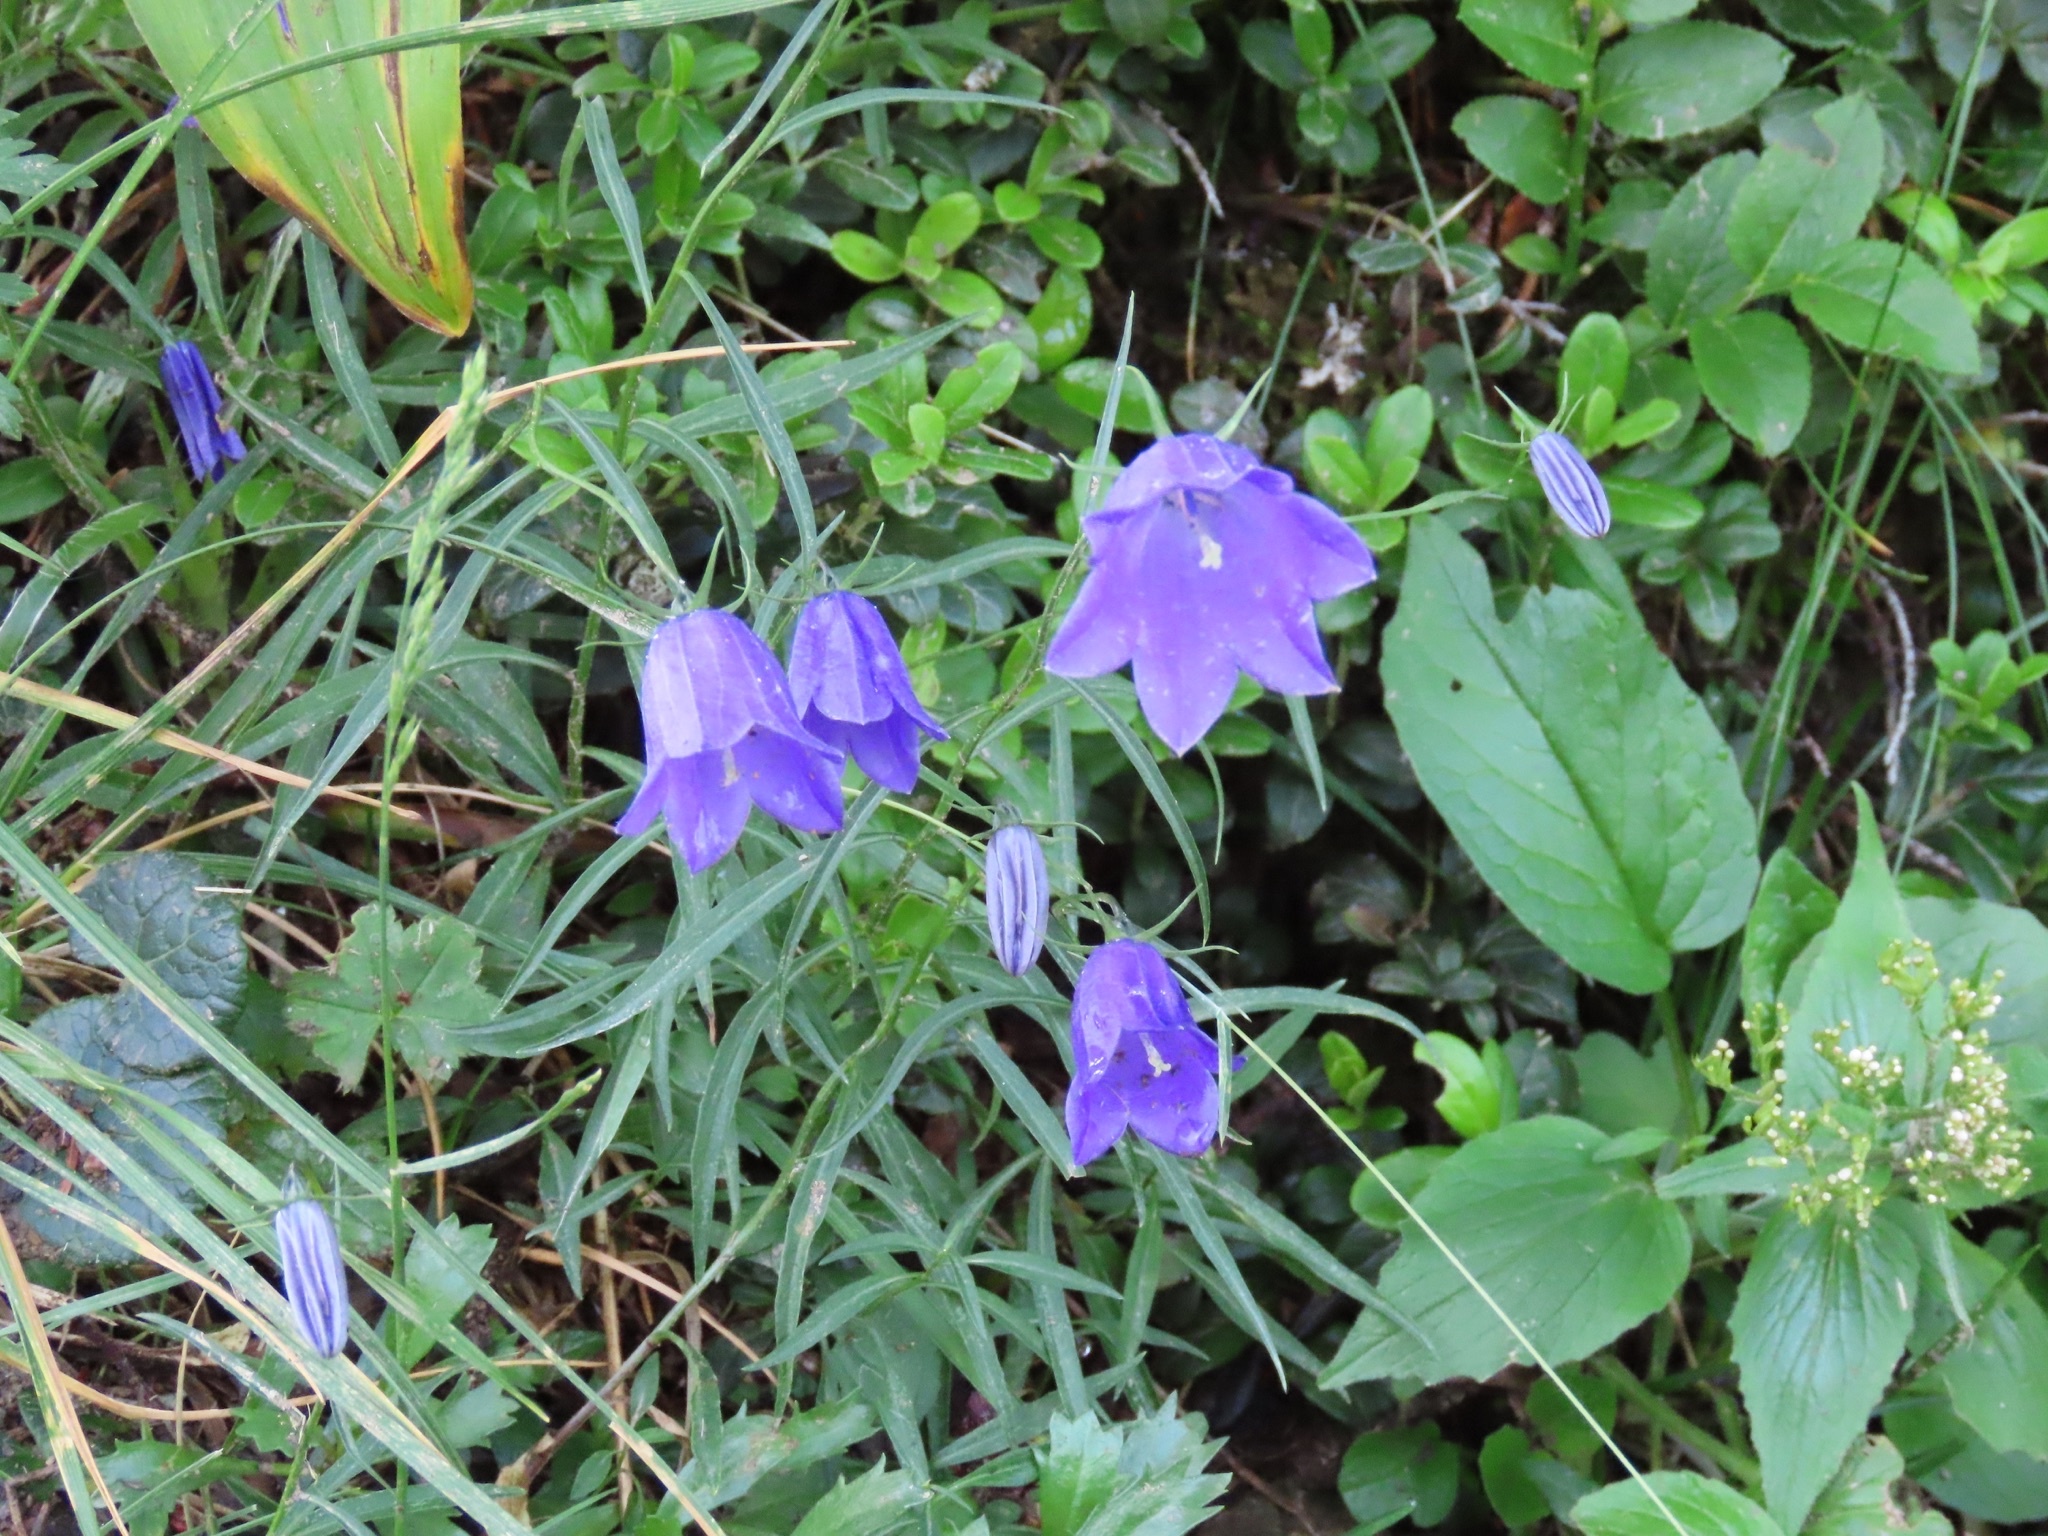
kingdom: Plantae
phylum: Tracheophyta
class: Magnoliopsida
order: Asterales
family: Campanulaceae
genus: Campanula
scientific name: Campanula scheuchzeri
